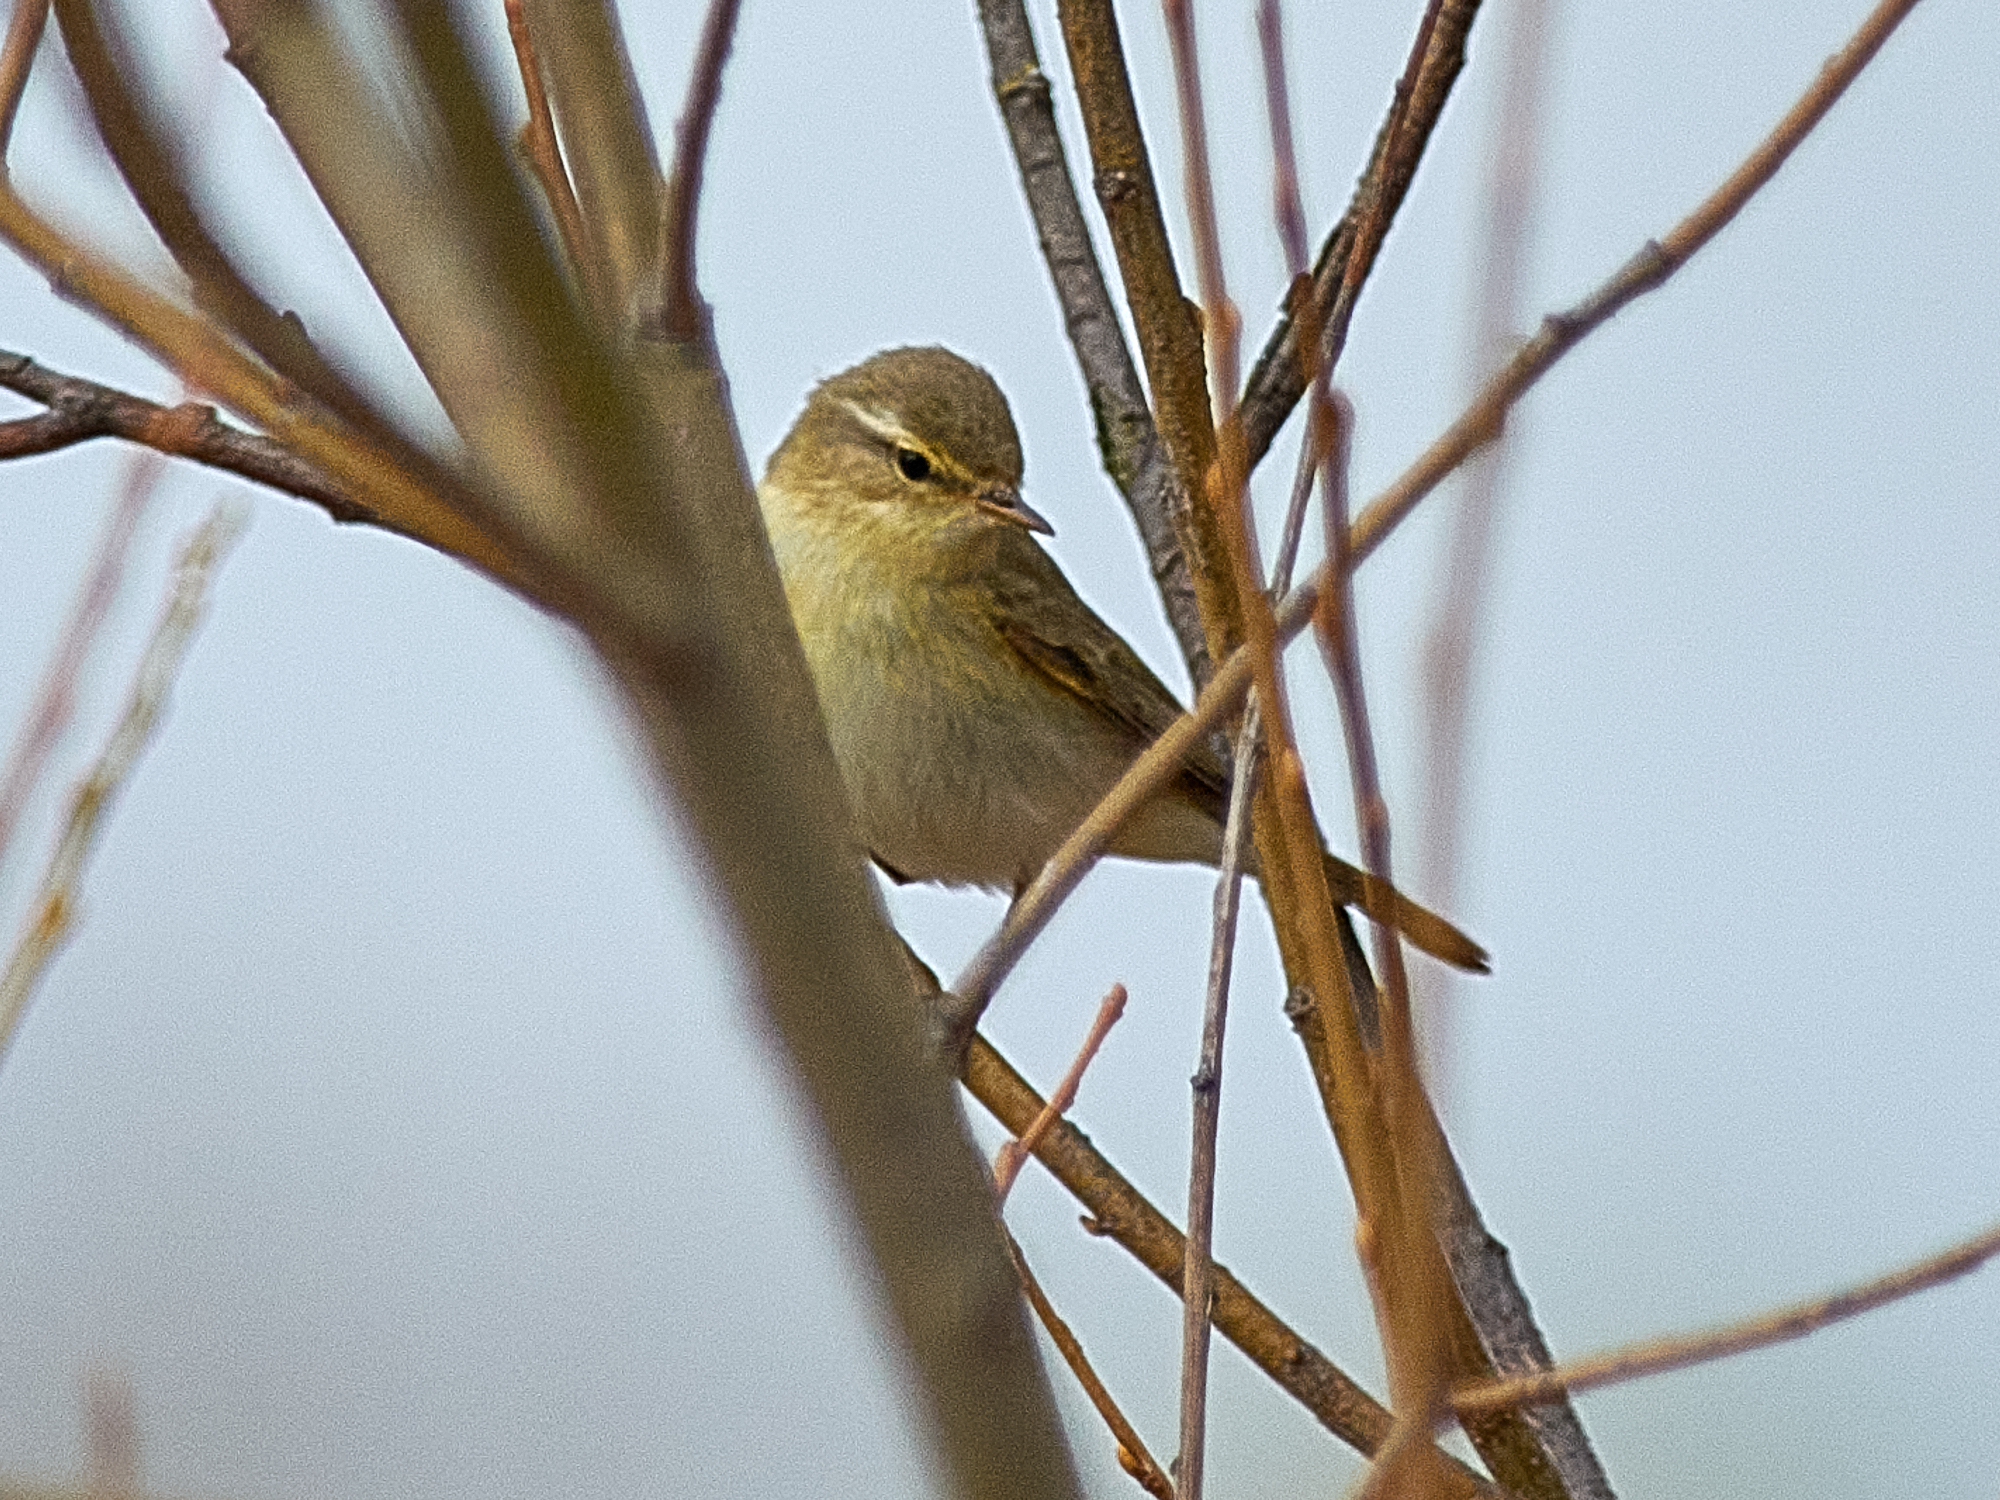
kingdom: Animalia
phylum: Chordata
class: Aves
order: Passeriformes
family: Phylloscopidae
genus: Phylloscopus
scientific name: Phylloscopus trochilus
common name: Willow warbler
